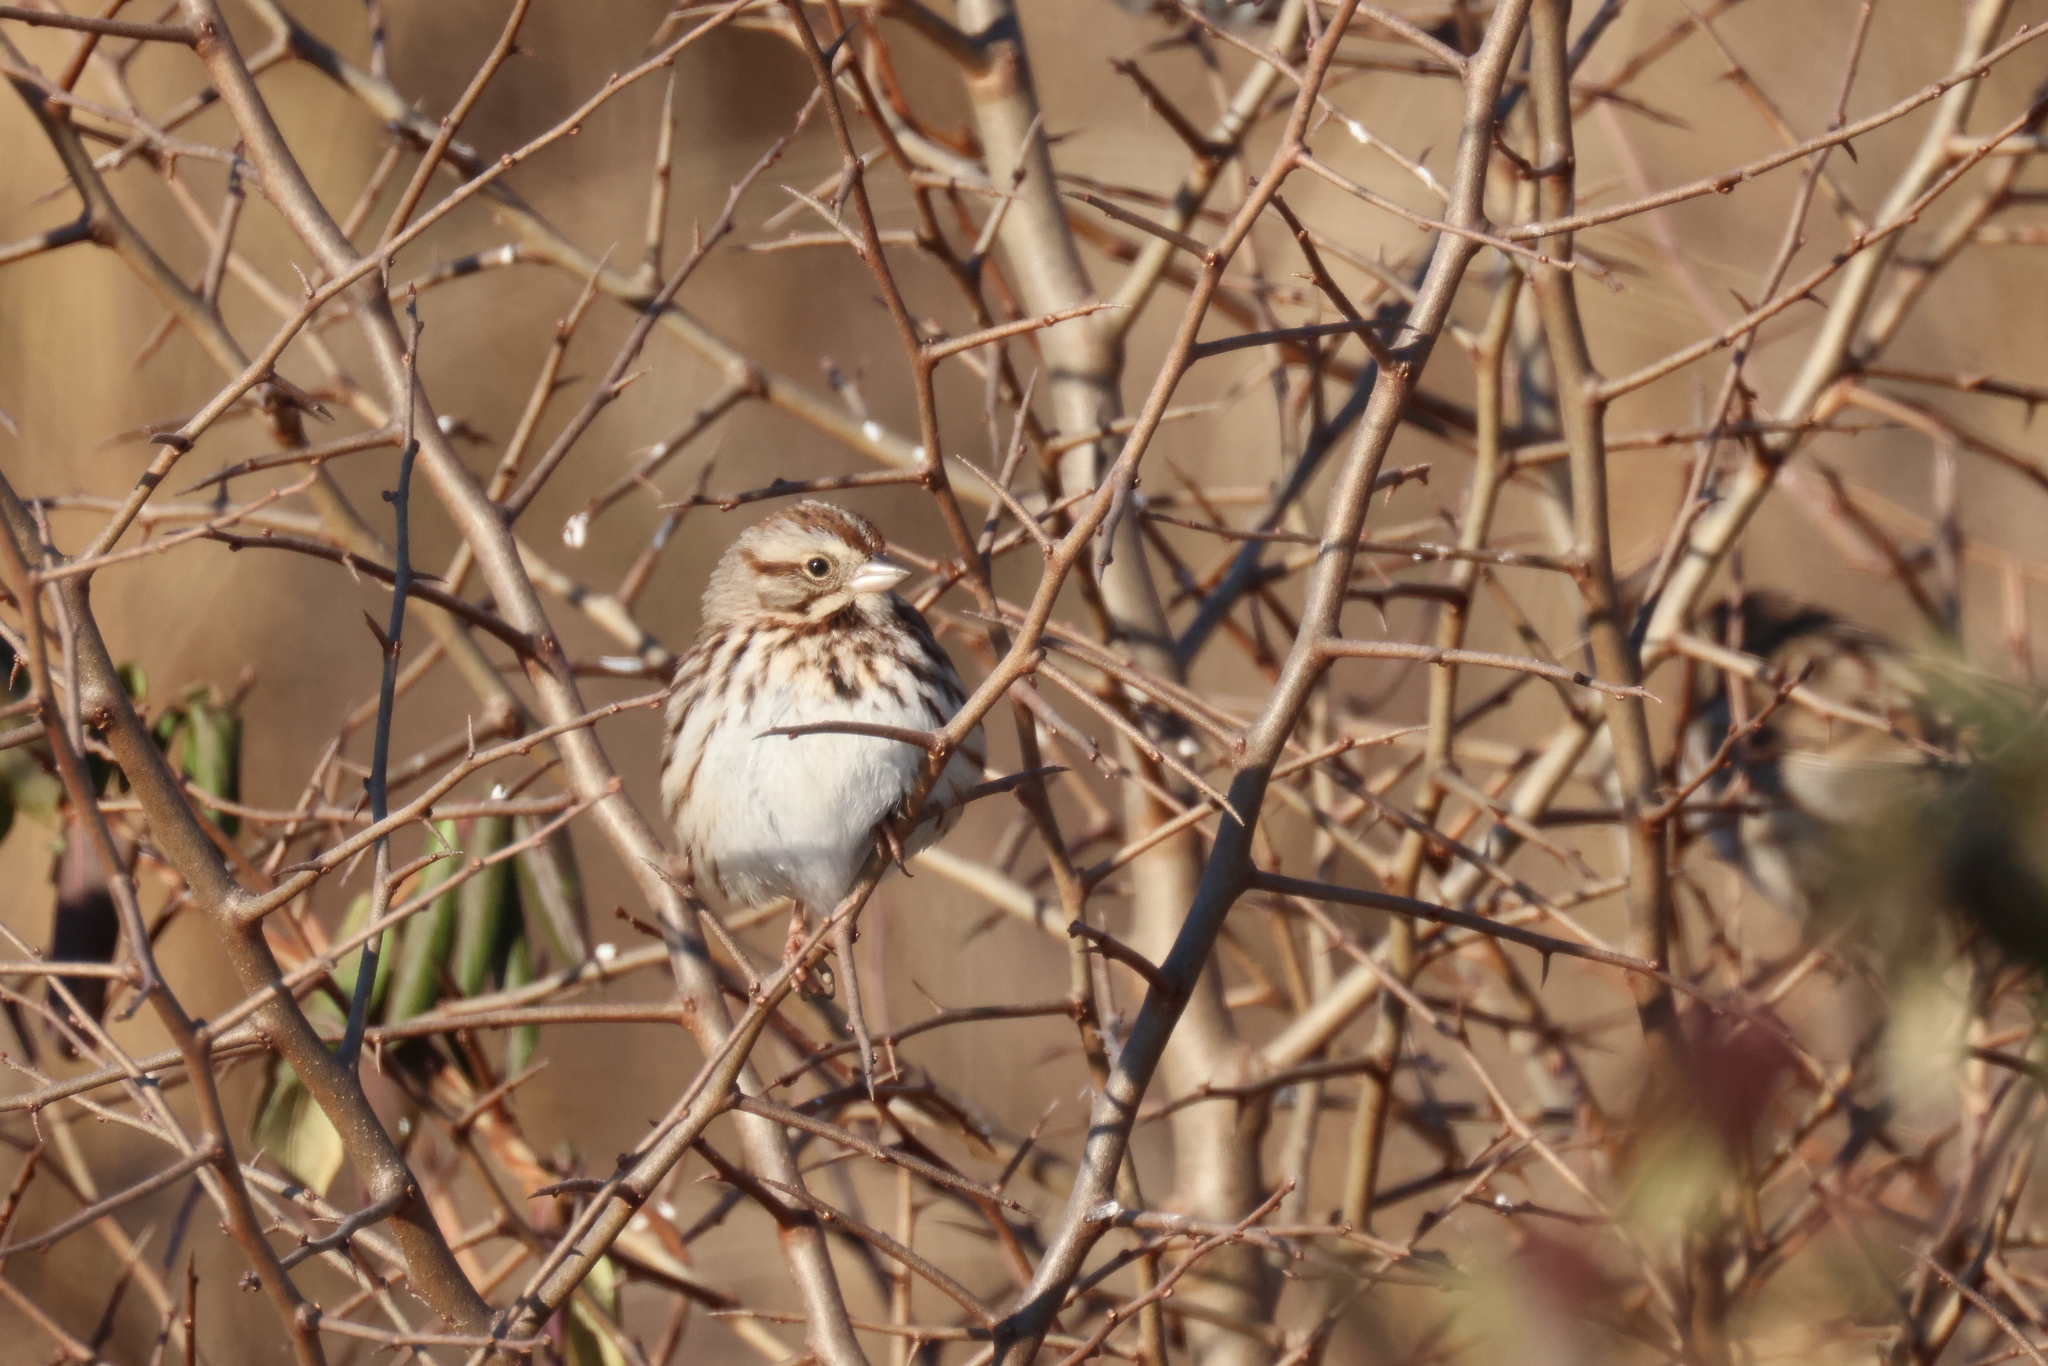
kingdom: Animalia
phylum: Chordata
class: Aves
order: Passeriformes
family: Passerellidae
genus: Melospiza
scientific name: Melospiza melodia
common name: Song sparrow
